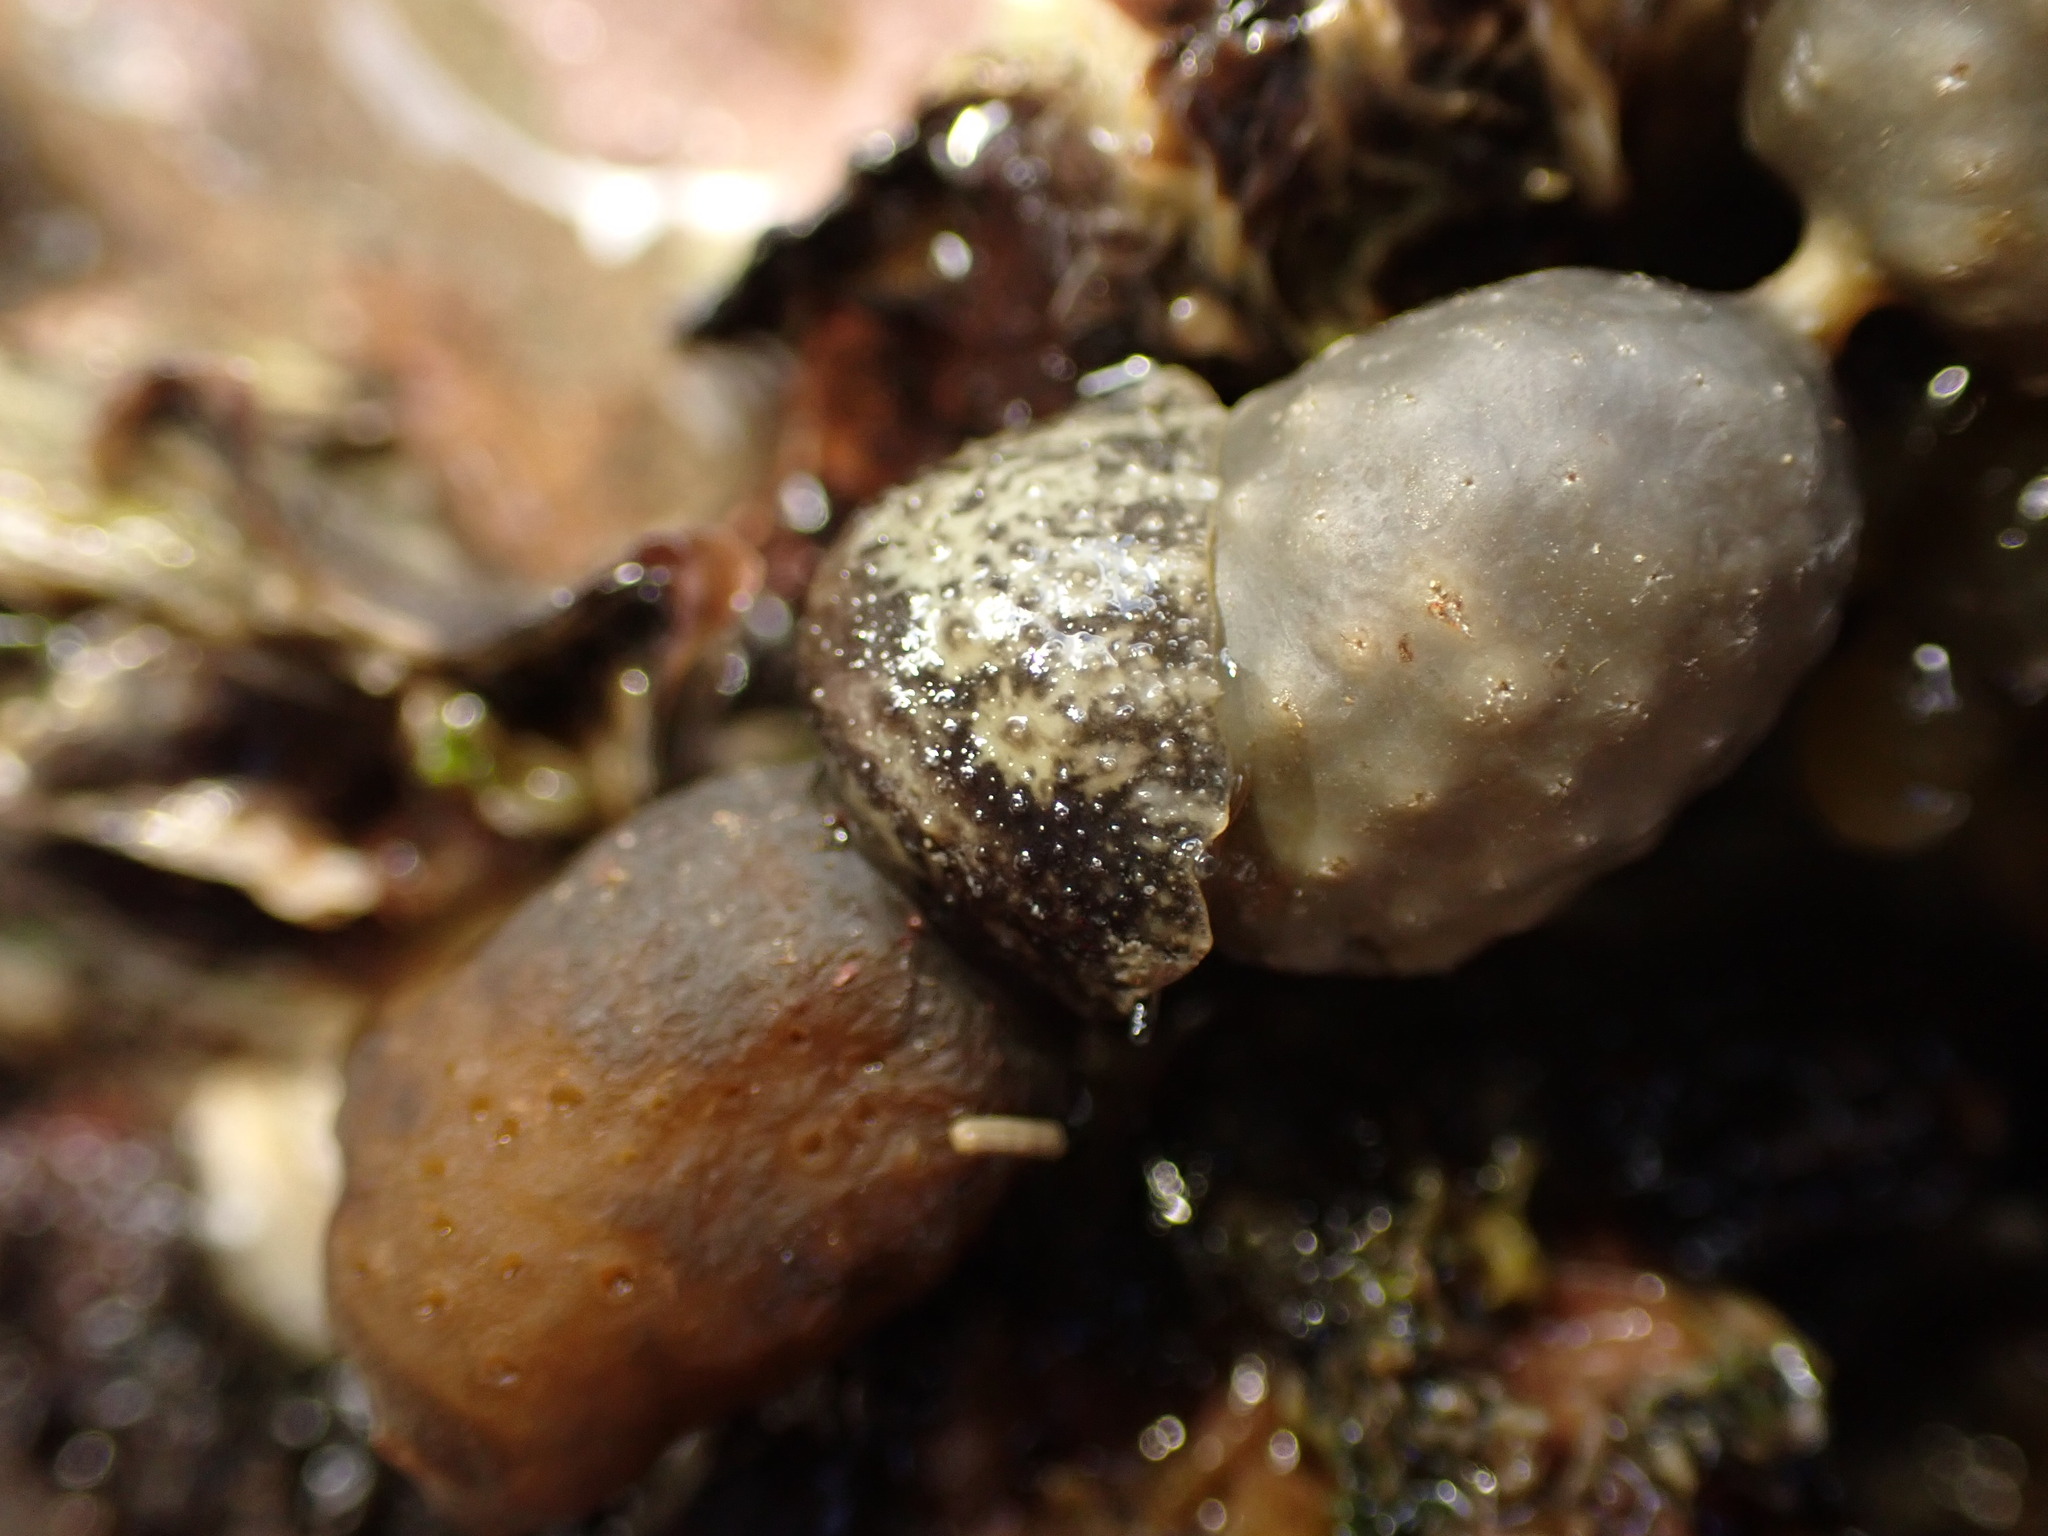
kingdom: Animalia
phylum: Mollusca
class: Gastropoda
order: Systellommatophora
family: Onchidiidae
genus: Onchidella
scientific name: Onchidella nigricans
